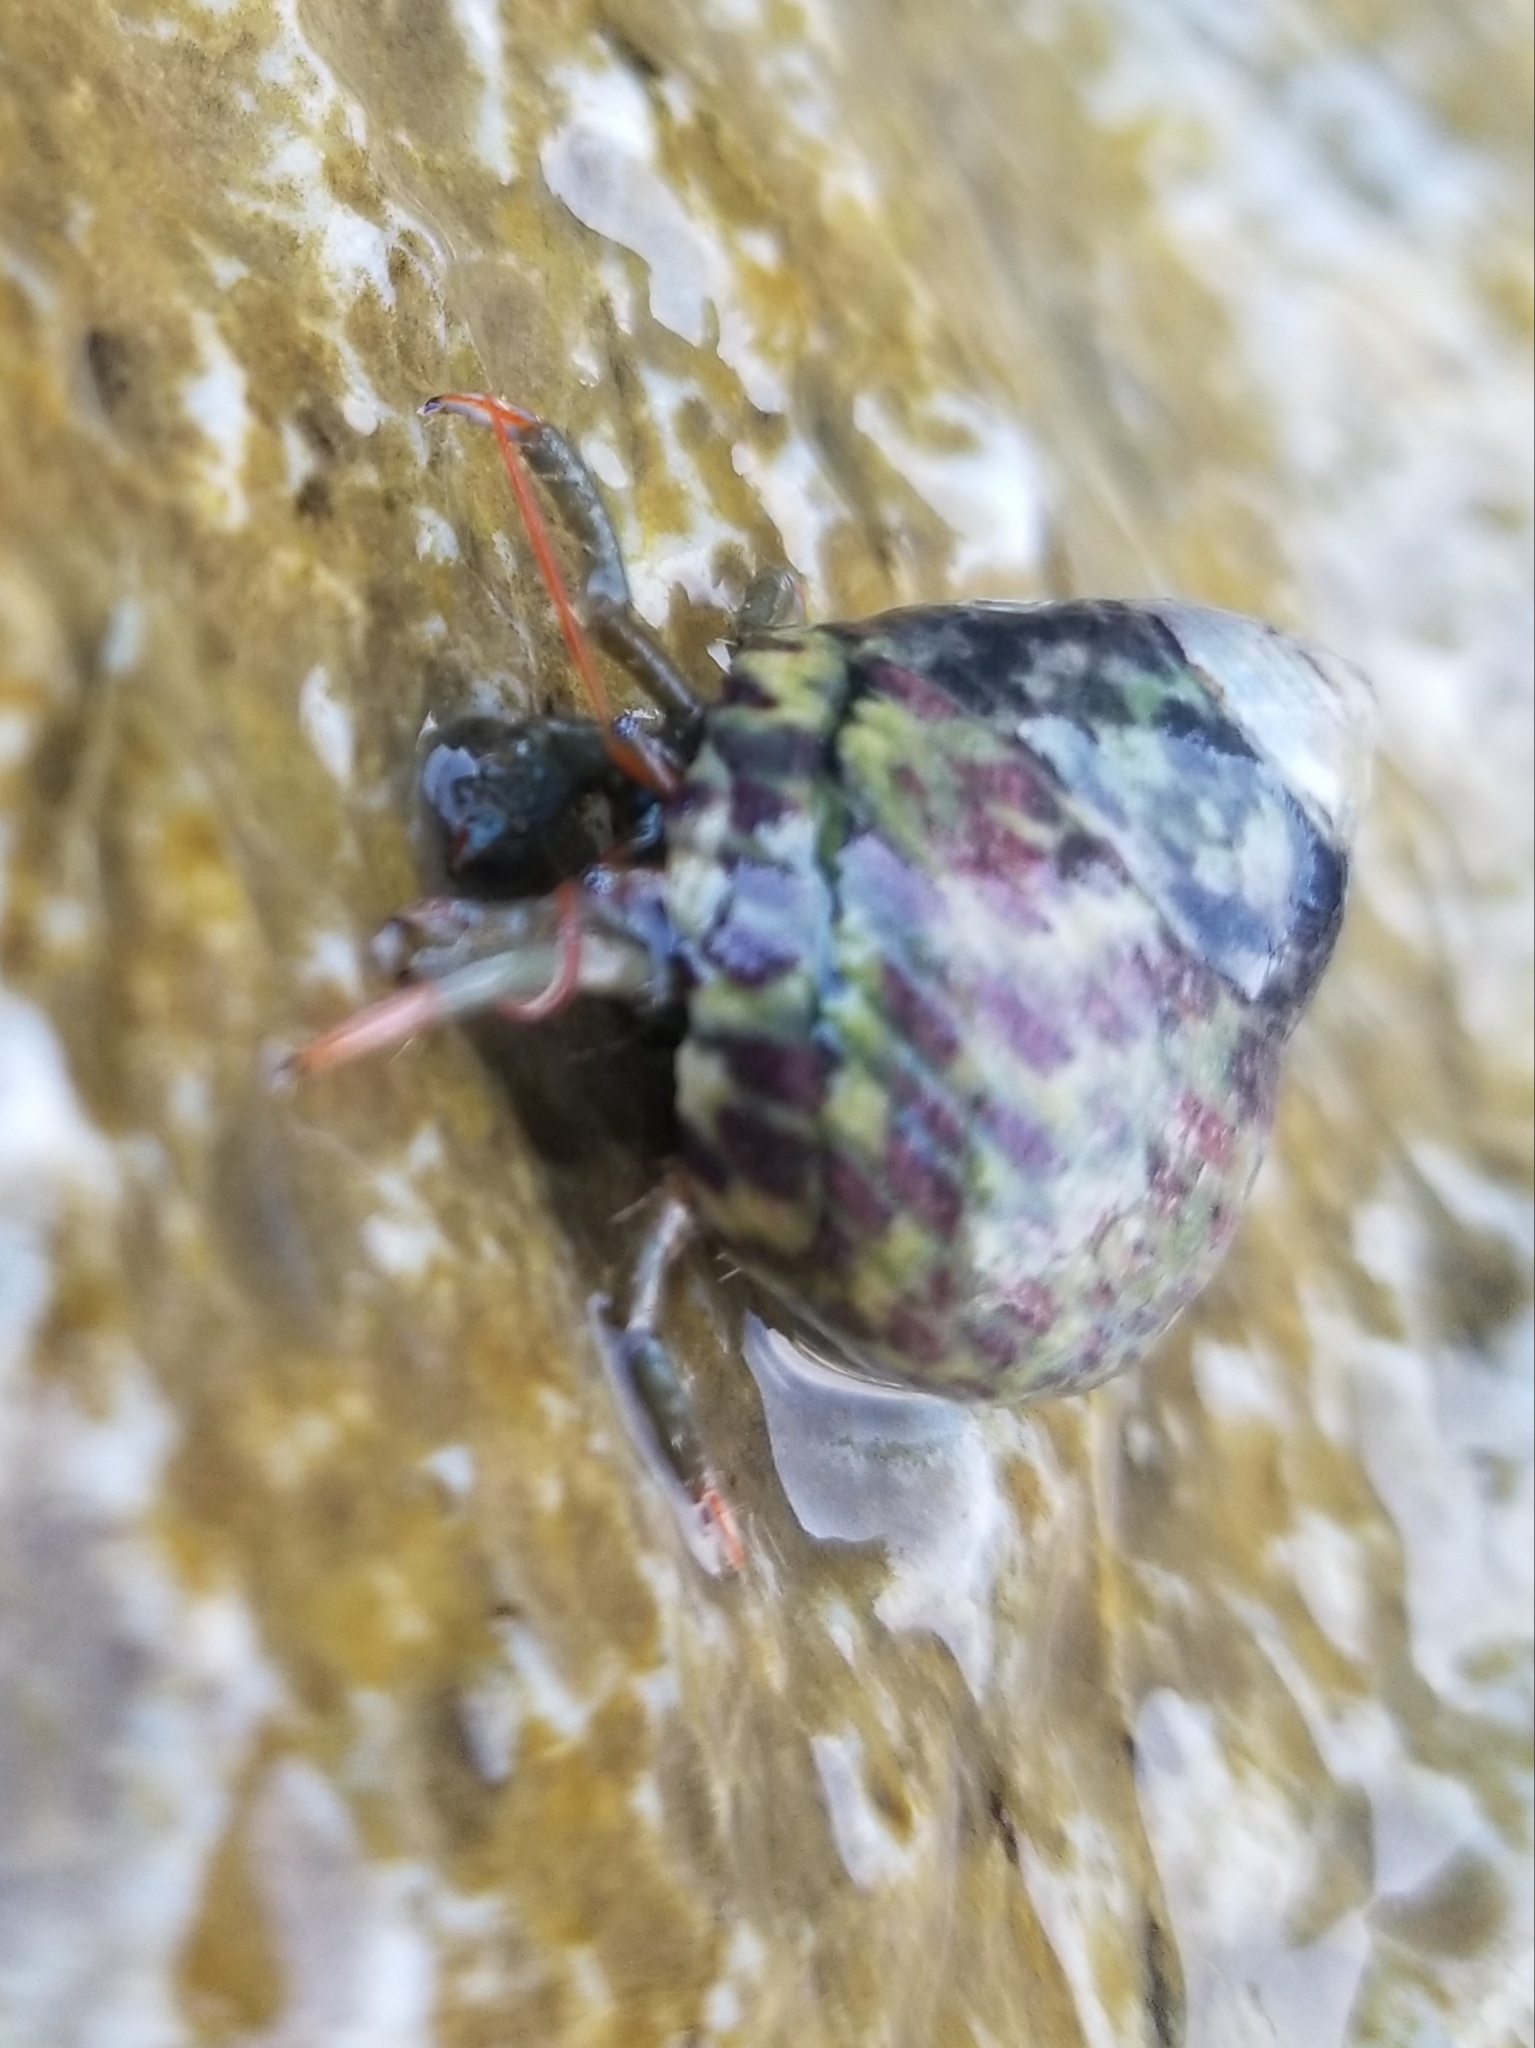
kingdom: Animalia
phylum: Arthropoda
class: Malacostraca
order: Decapoda
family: Diogenidae
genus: Clibanarius
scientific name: Clibanarius erythropus
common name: Hermit crab
